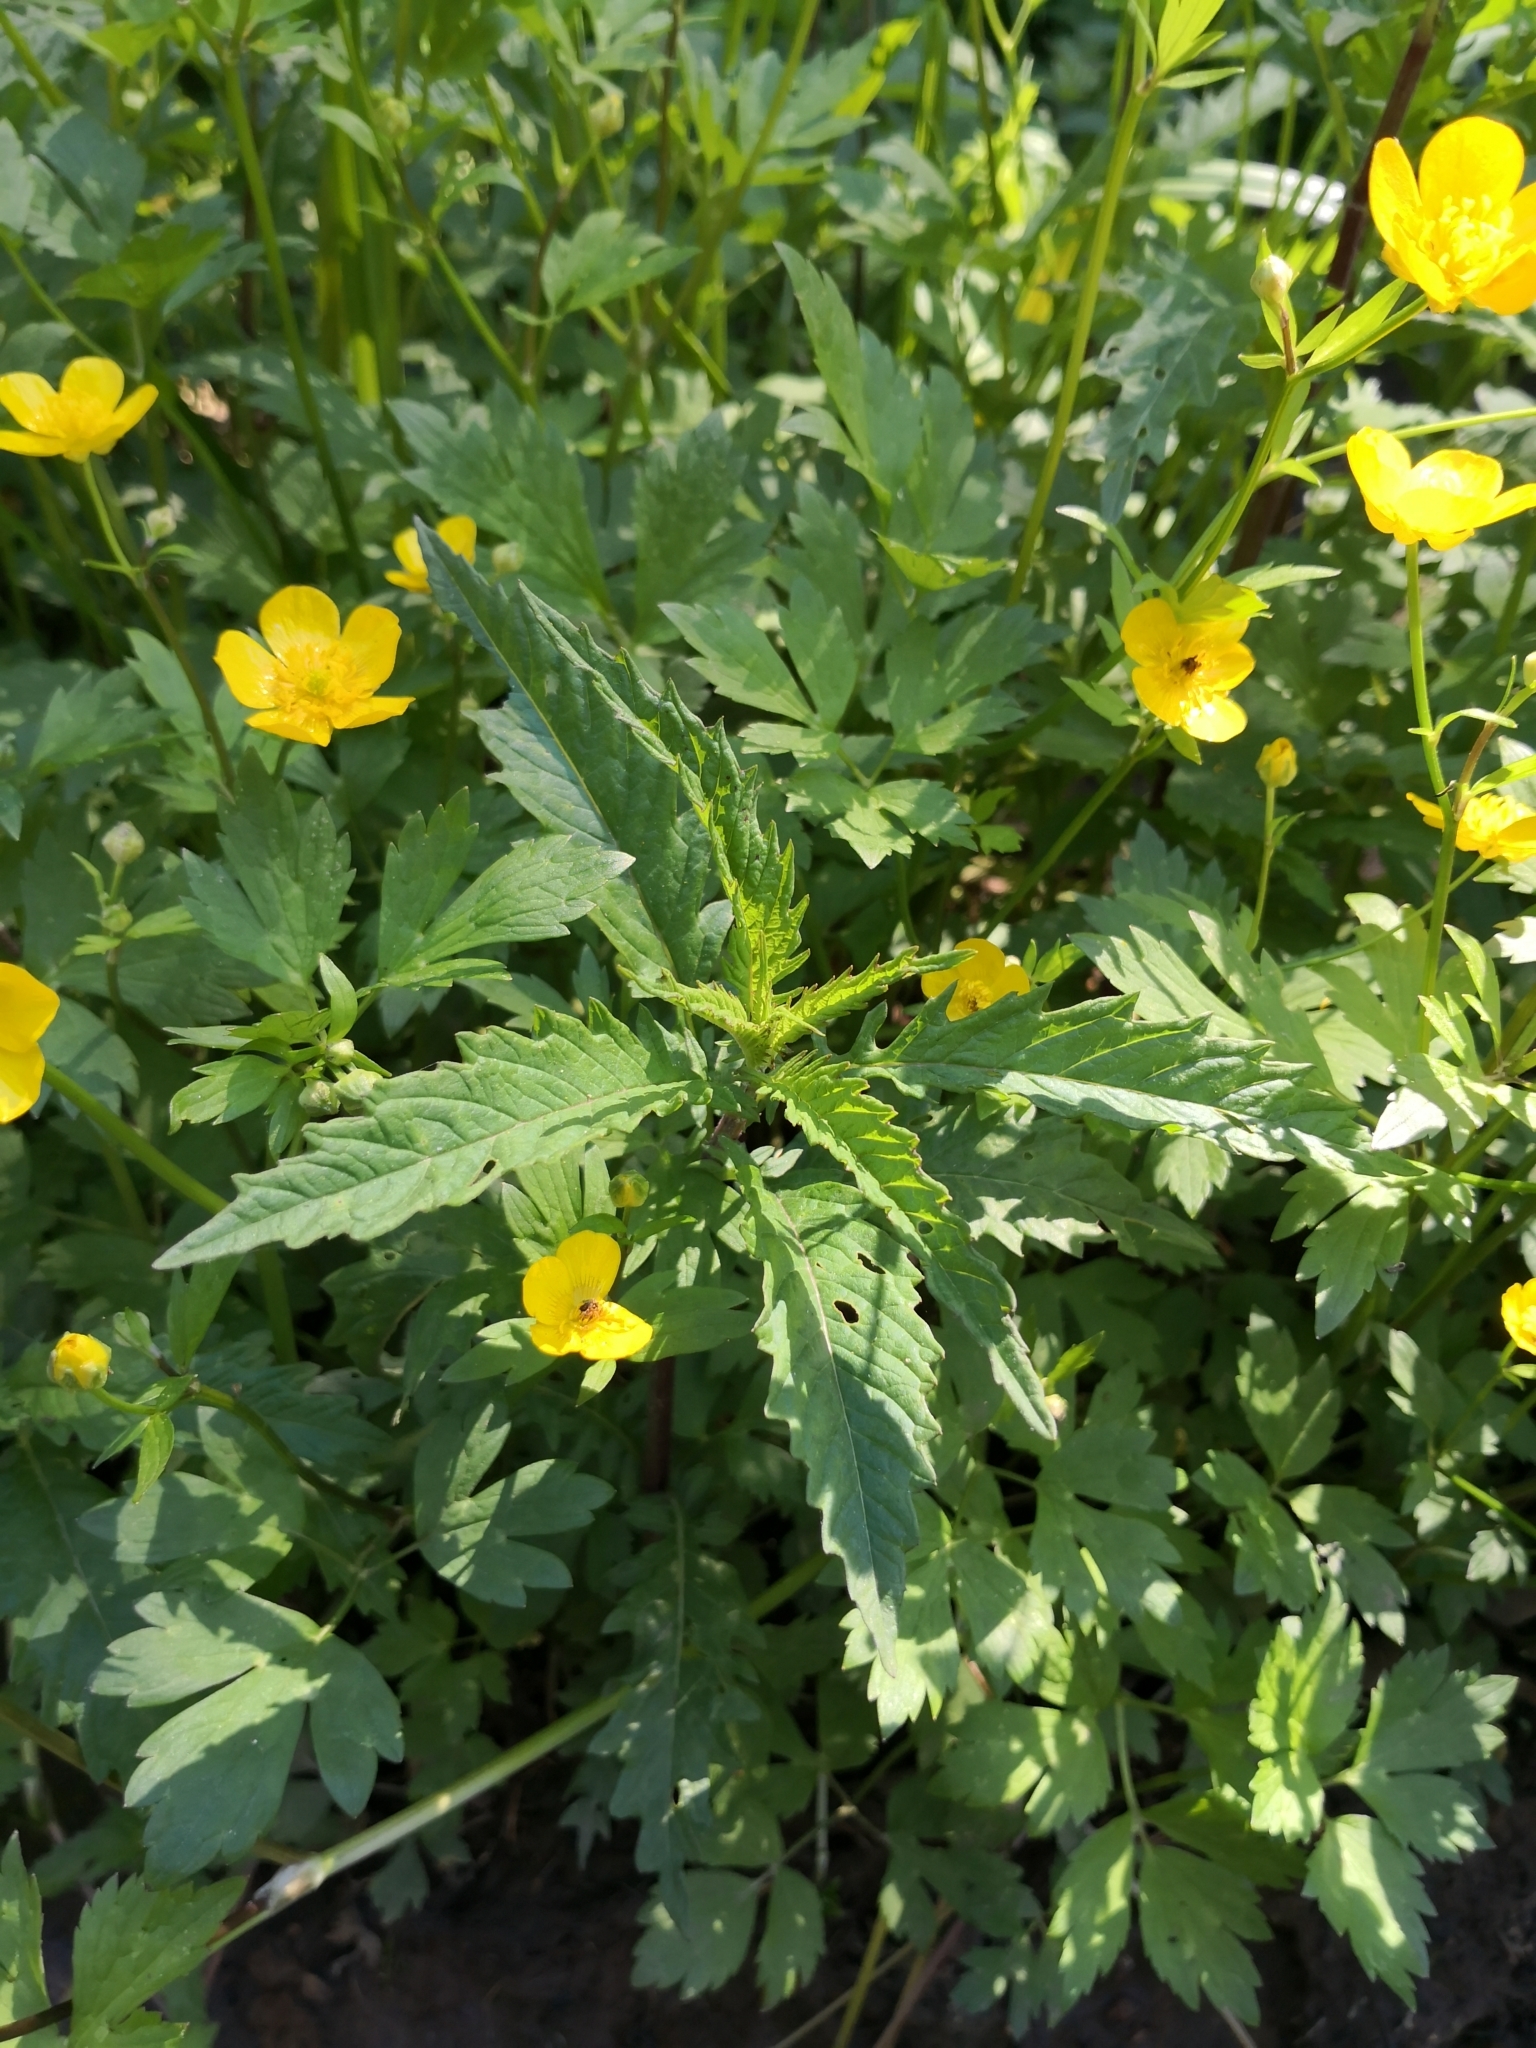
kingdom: Plantae
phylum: Tracheophyta
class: Magnoliopsida
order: Ranunculales
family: Ranunculaceae
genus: Ranunculus
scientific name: Ranunculus repens
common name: Creeping buttercup
